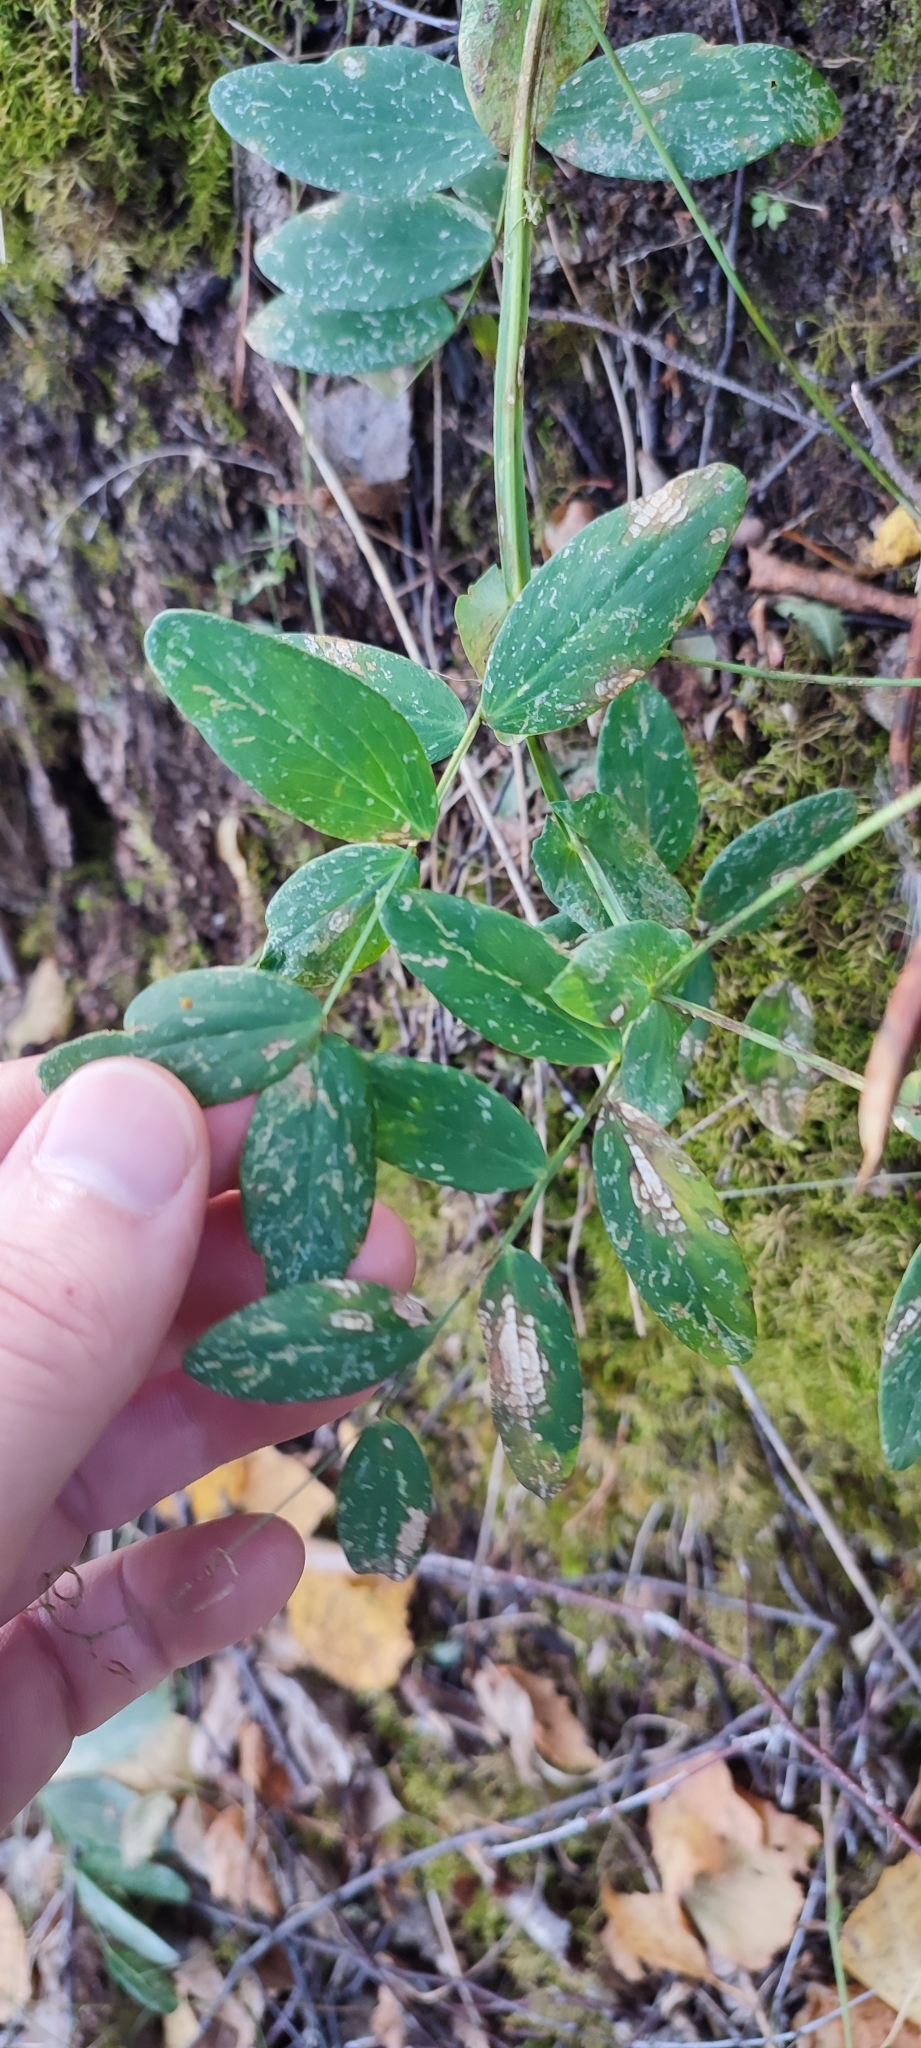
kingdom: Plantae
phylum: Tracheophyta
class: Magnoliopsida
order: Fabales
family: Fabaceae
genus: Lathyrus
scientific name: Lathyrus pisiformis
